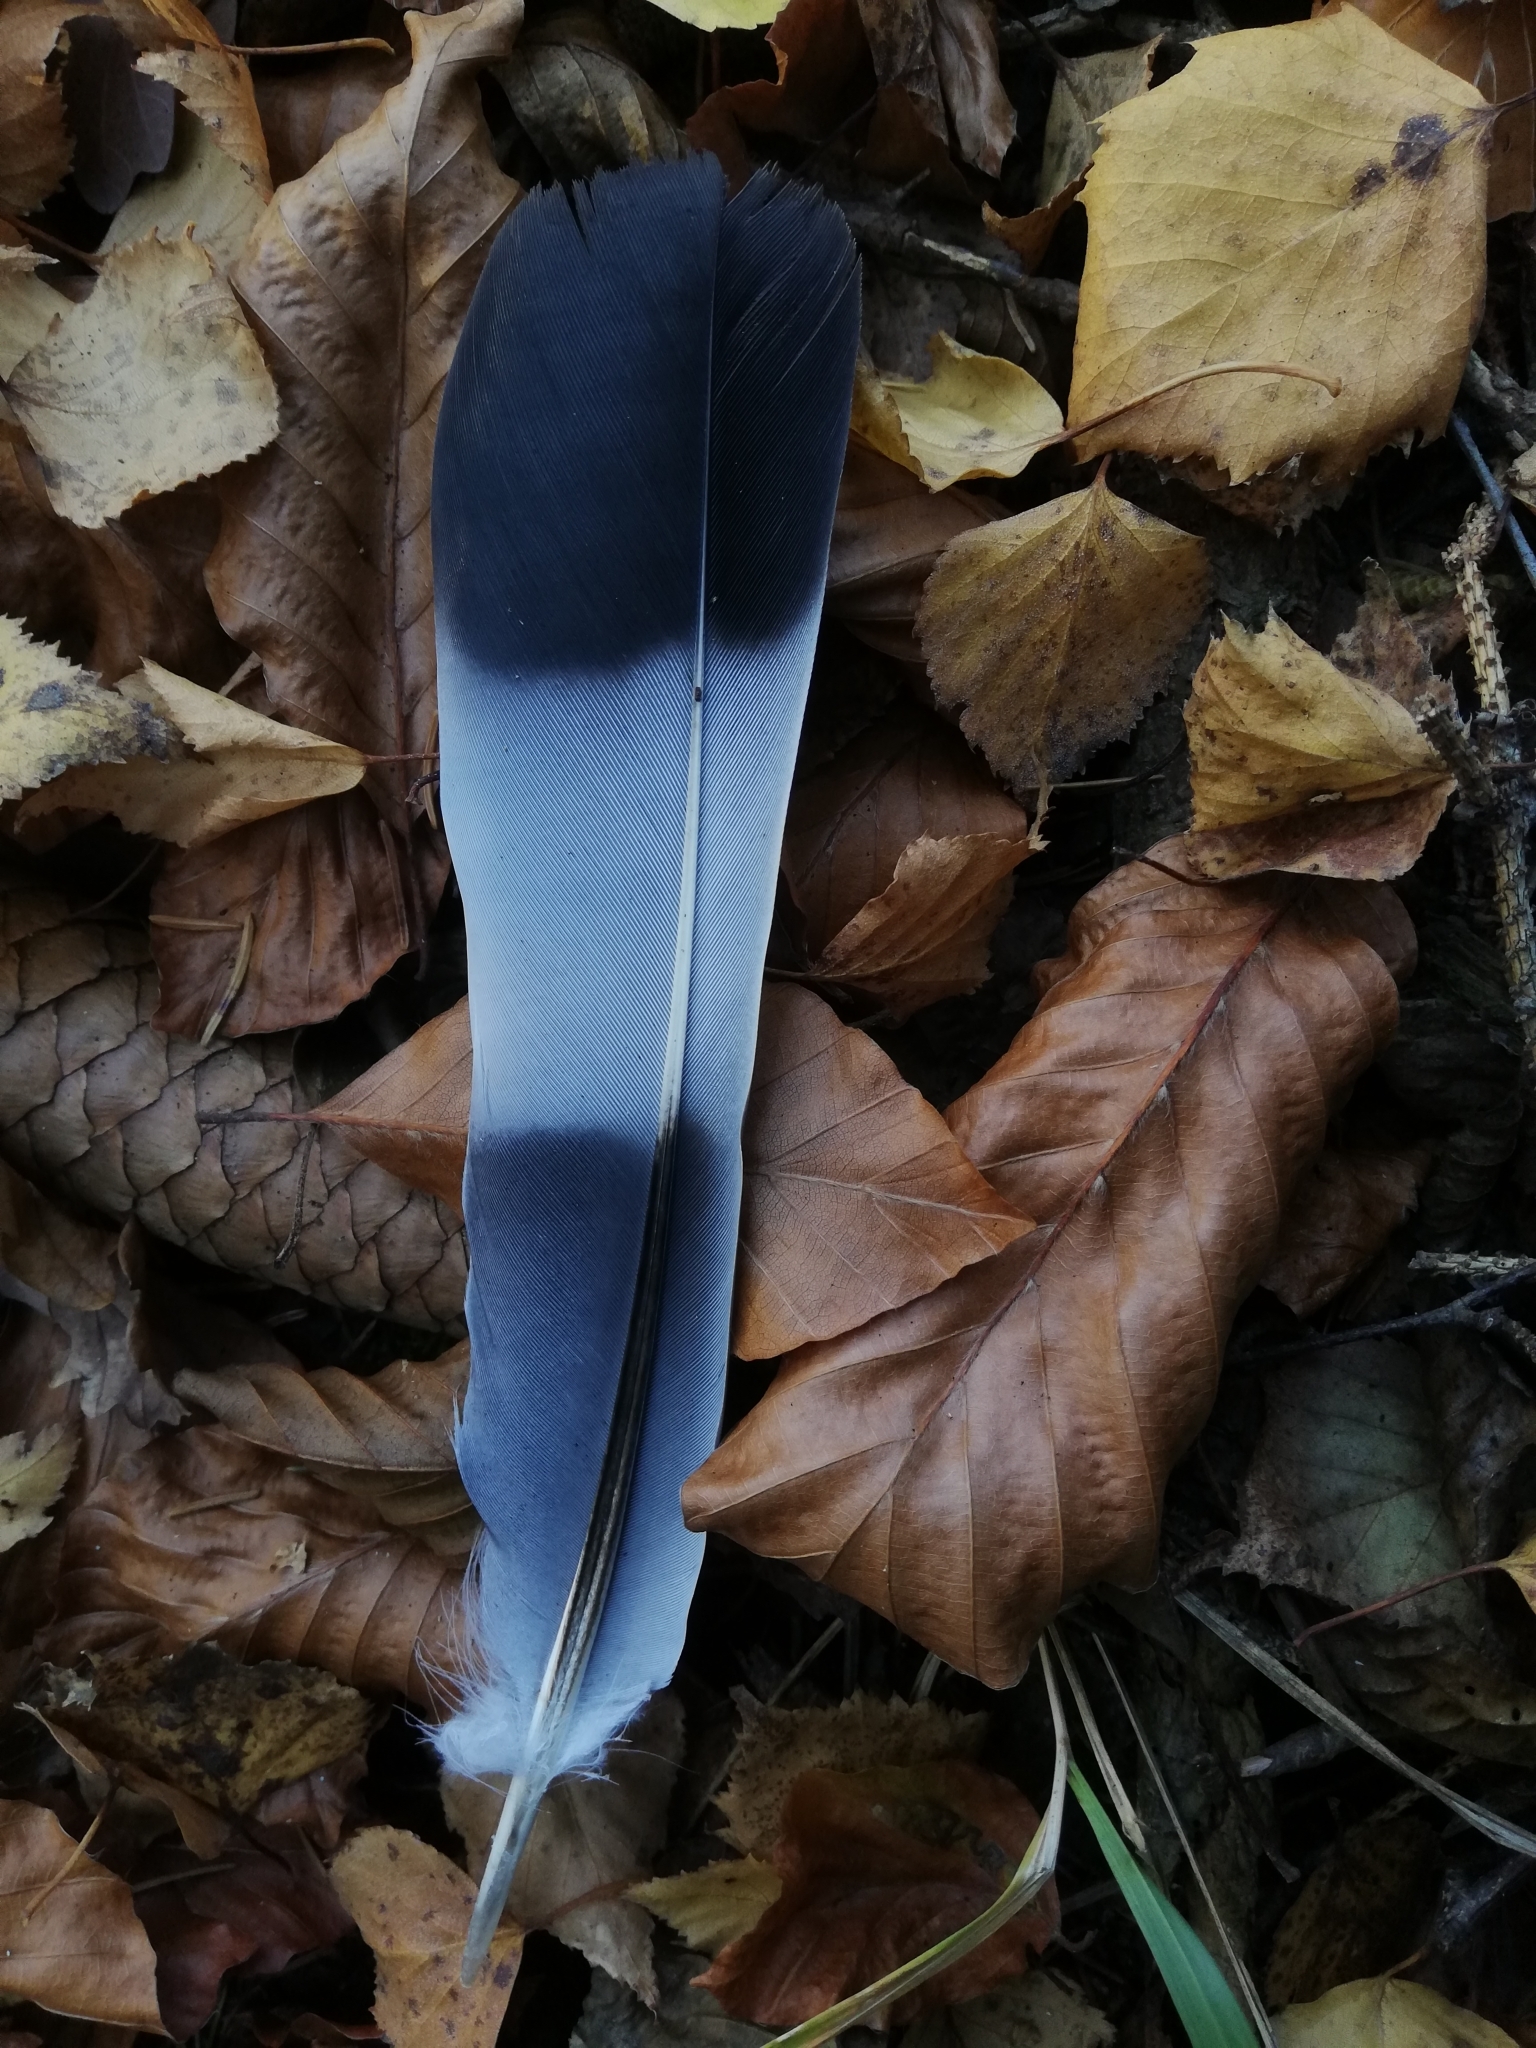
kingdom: Animalia
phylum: Chordata
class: Aves
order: Columbiformes
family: Columbidae
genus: Columba
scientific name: Columba palumbus
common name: Common wood pigeon
